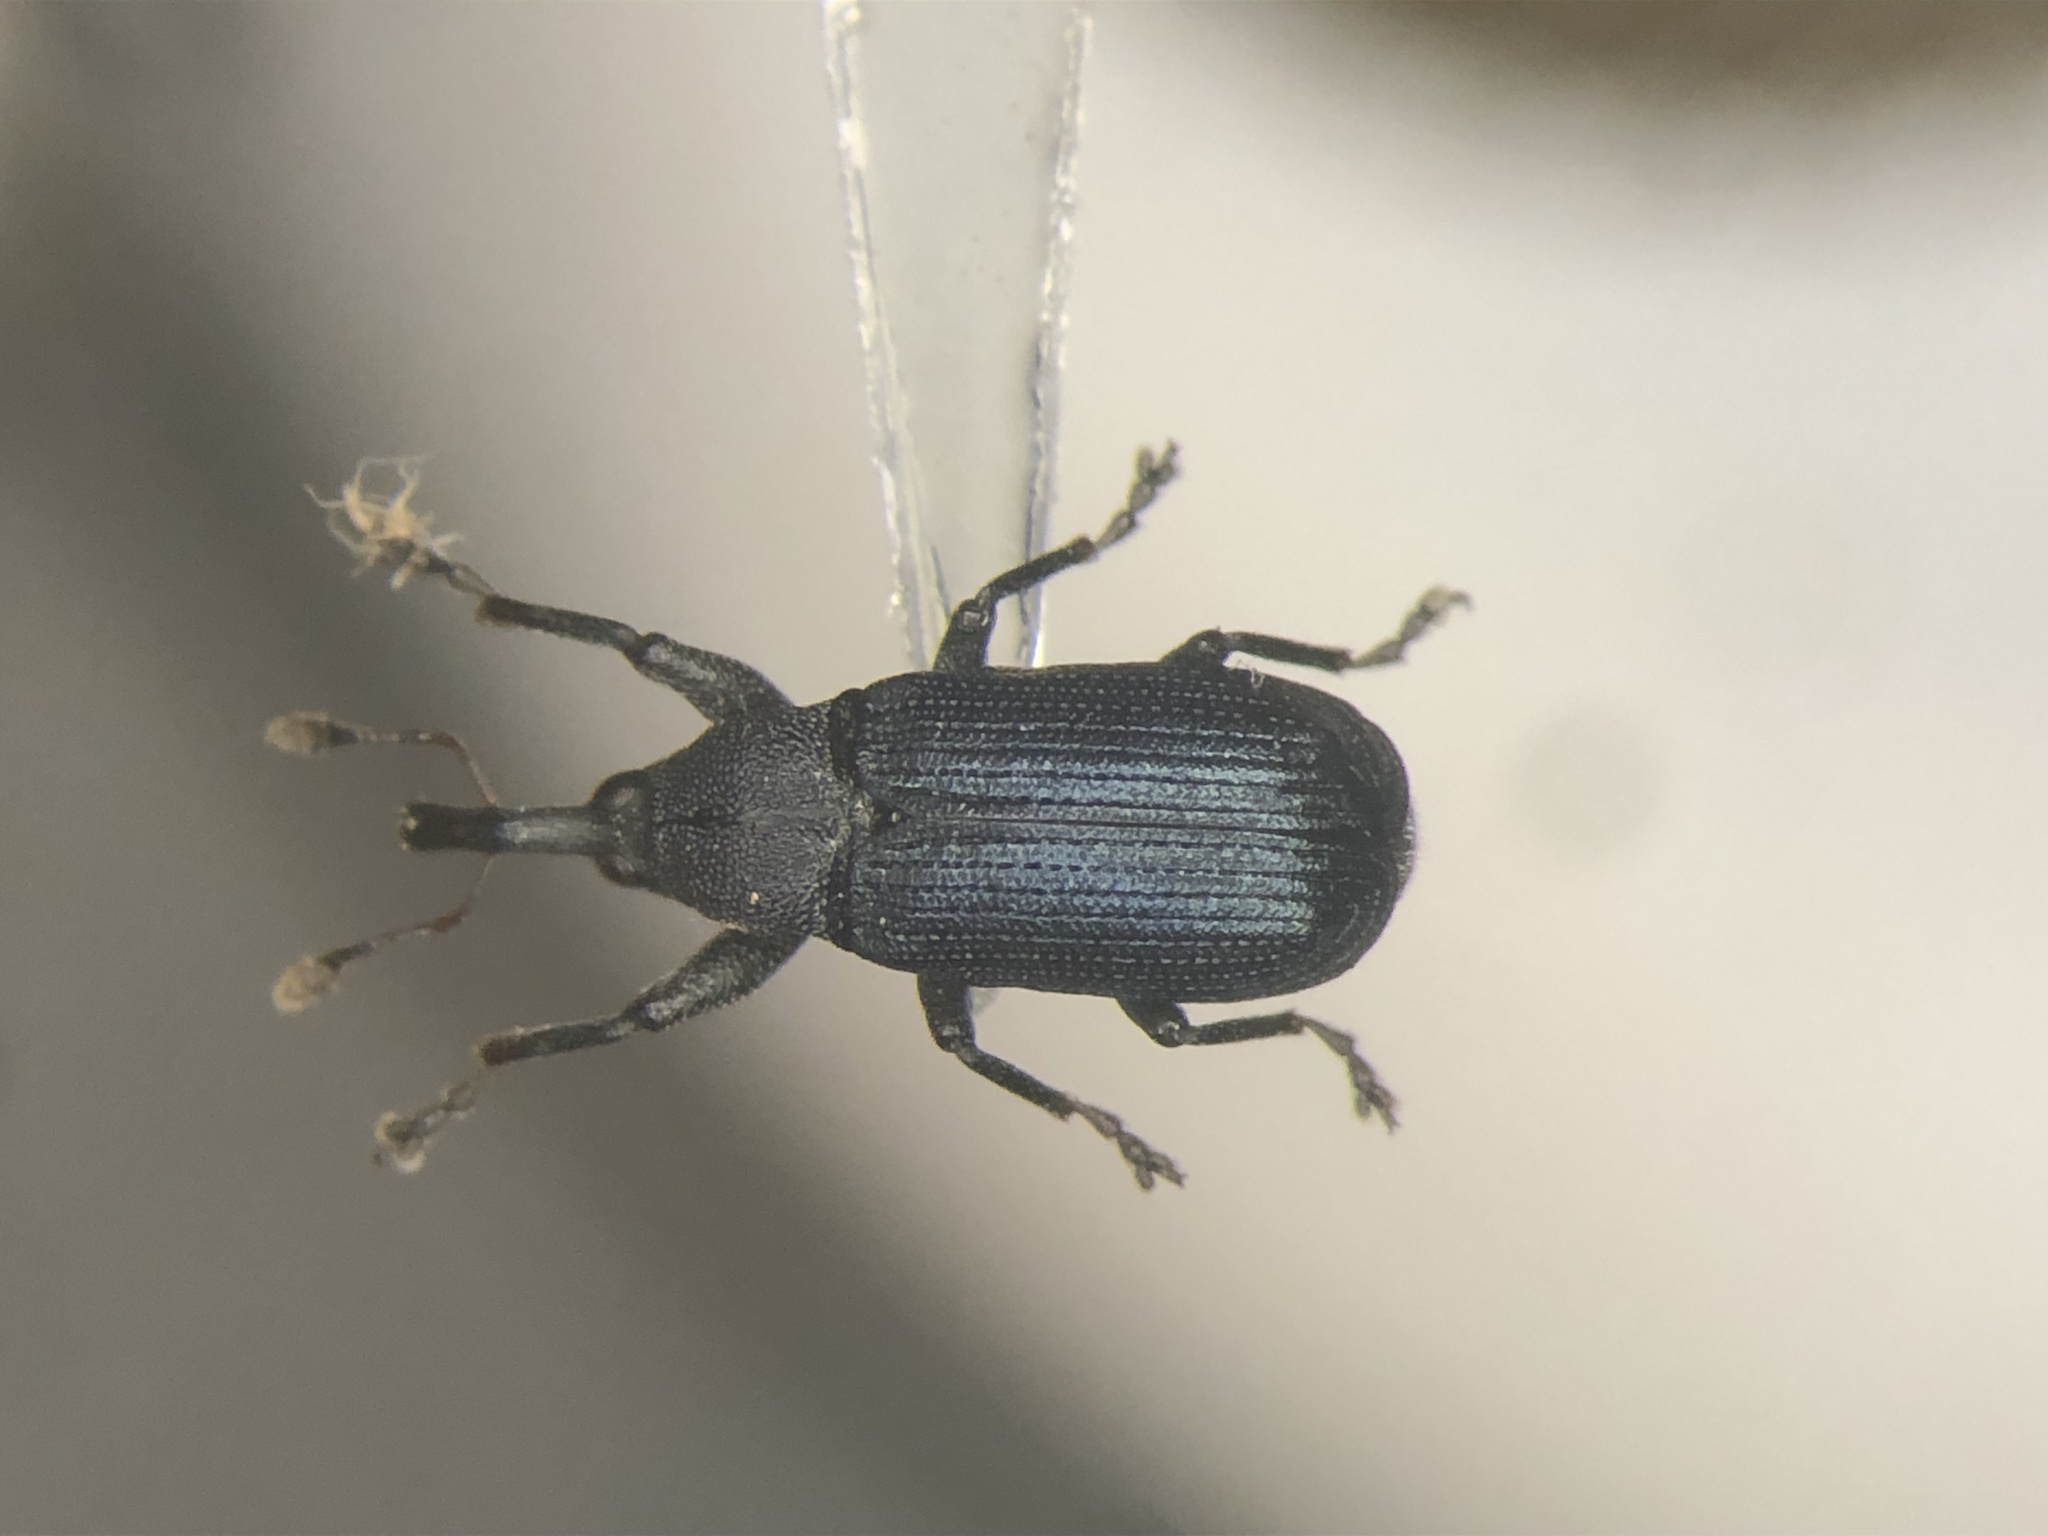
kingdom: Animalia
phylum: Arthropoda
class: Insecta
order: Coleoptera
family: Curculionidae
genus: Magdalis
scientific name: Magdalis austera
